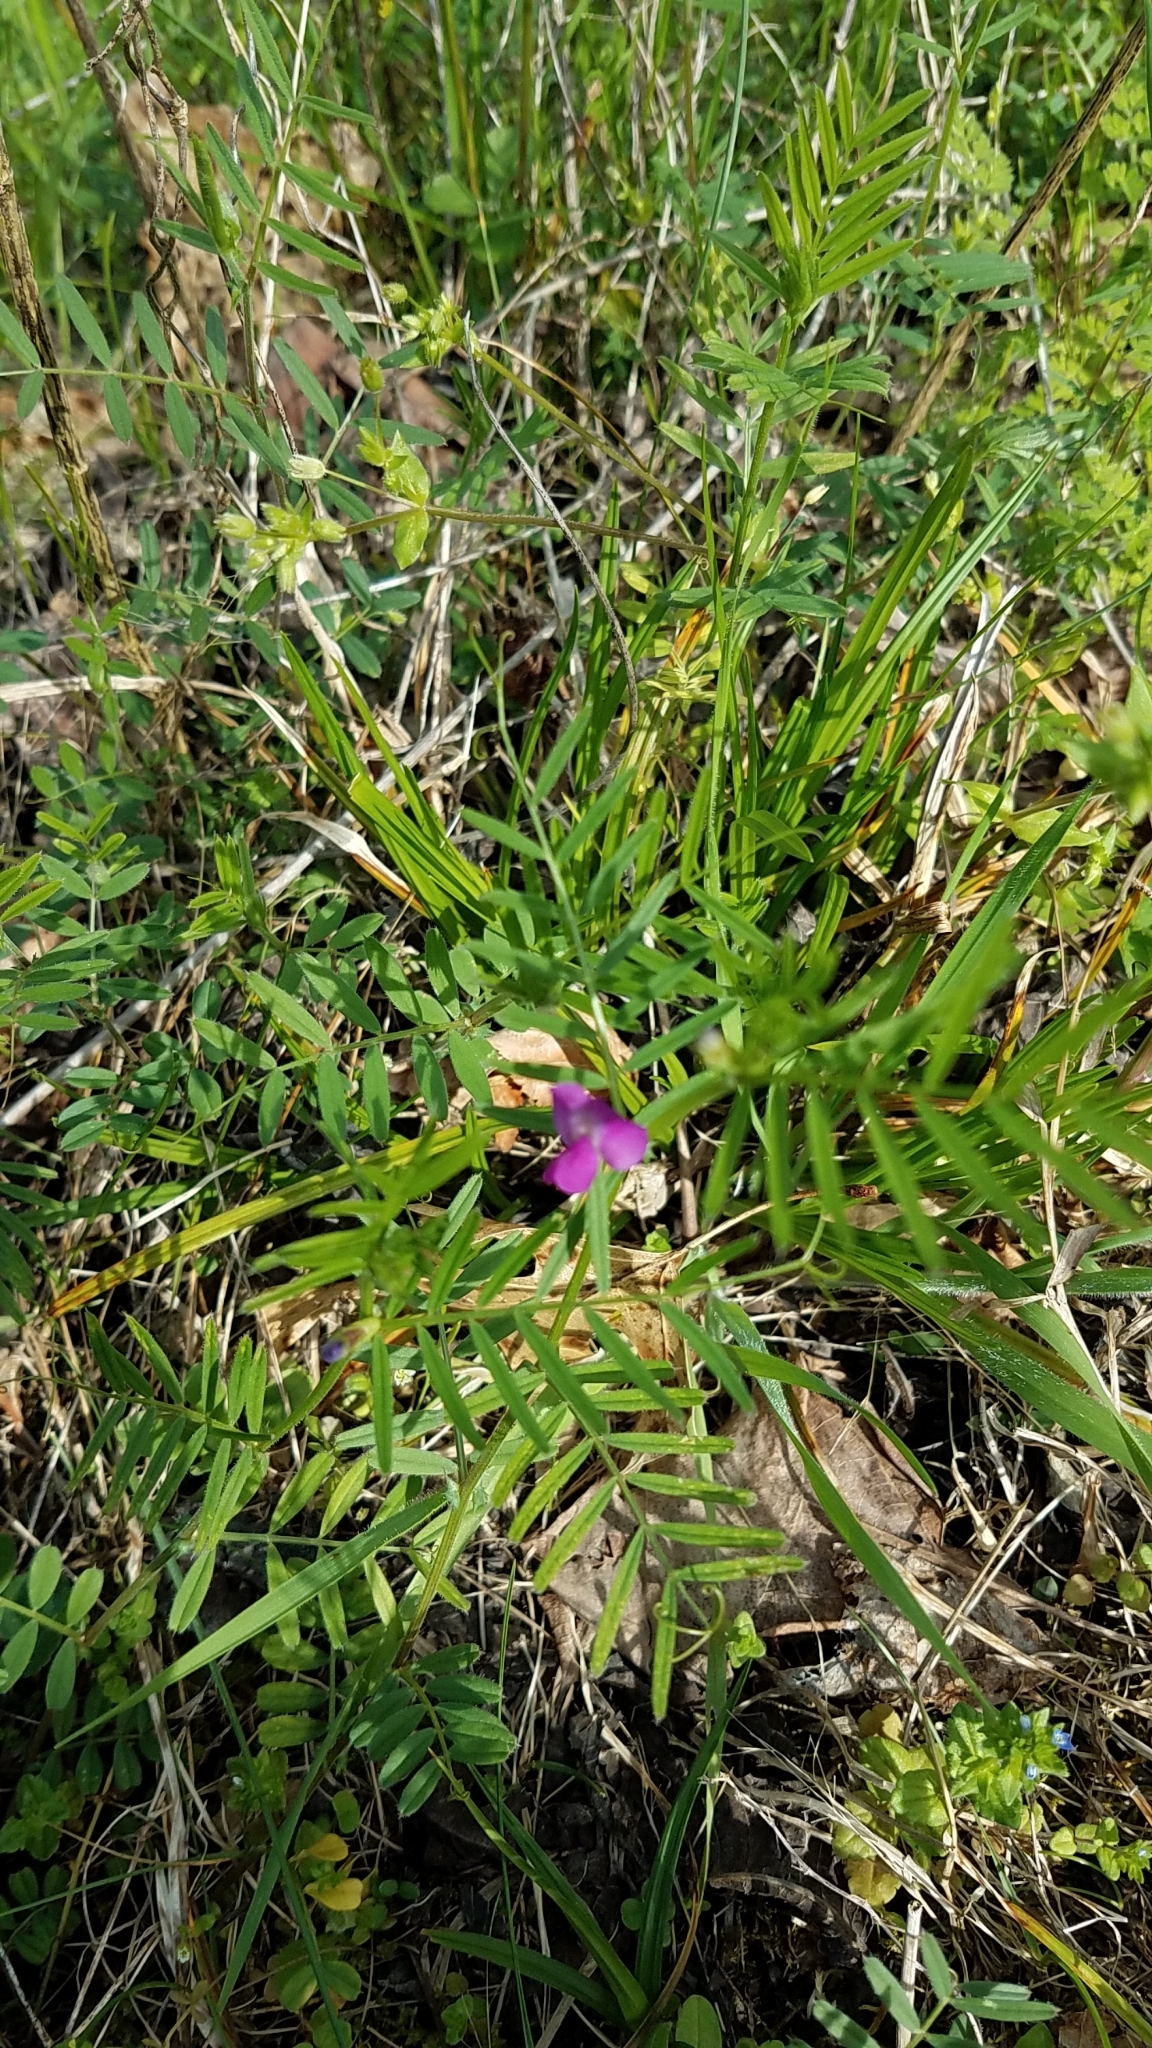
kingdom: Plantae
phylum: Tracheophyta
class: Magnoliopsida
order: Fabales
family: Fabaceae
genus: Vicia
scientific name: Vicia sativa
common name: Garden vetch
